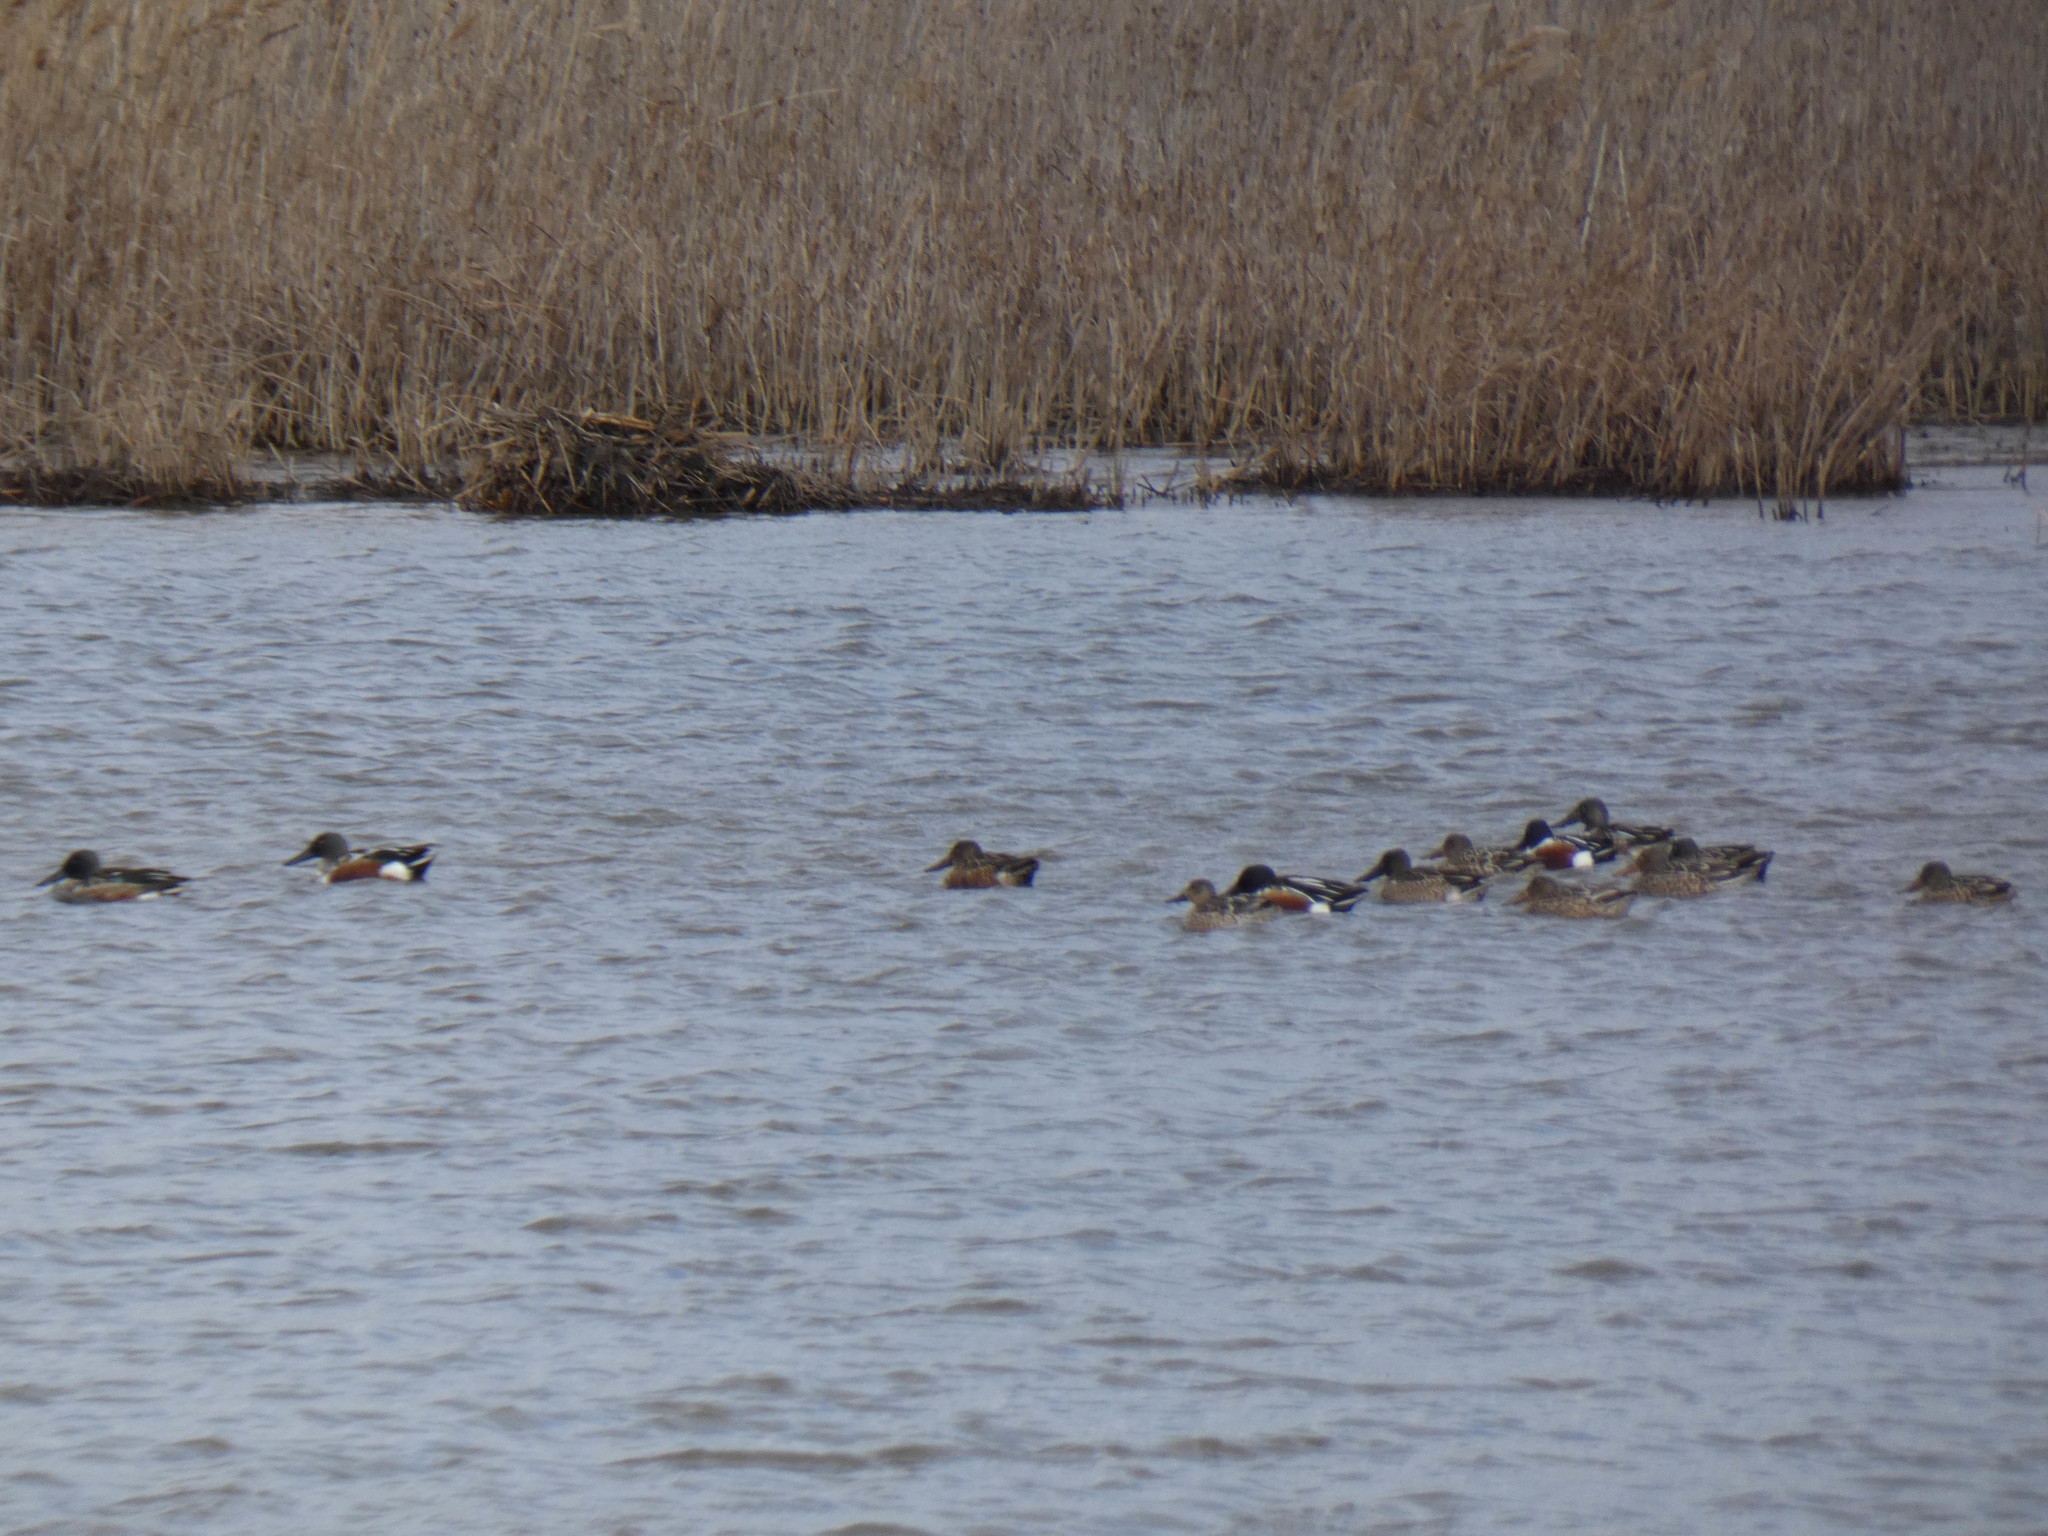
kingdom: Animalia
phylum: Chordata
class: Aves
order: Anseriformes
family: Anatidae
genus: Spatula
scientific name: Spatula clypeata
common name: Northern shoveler
